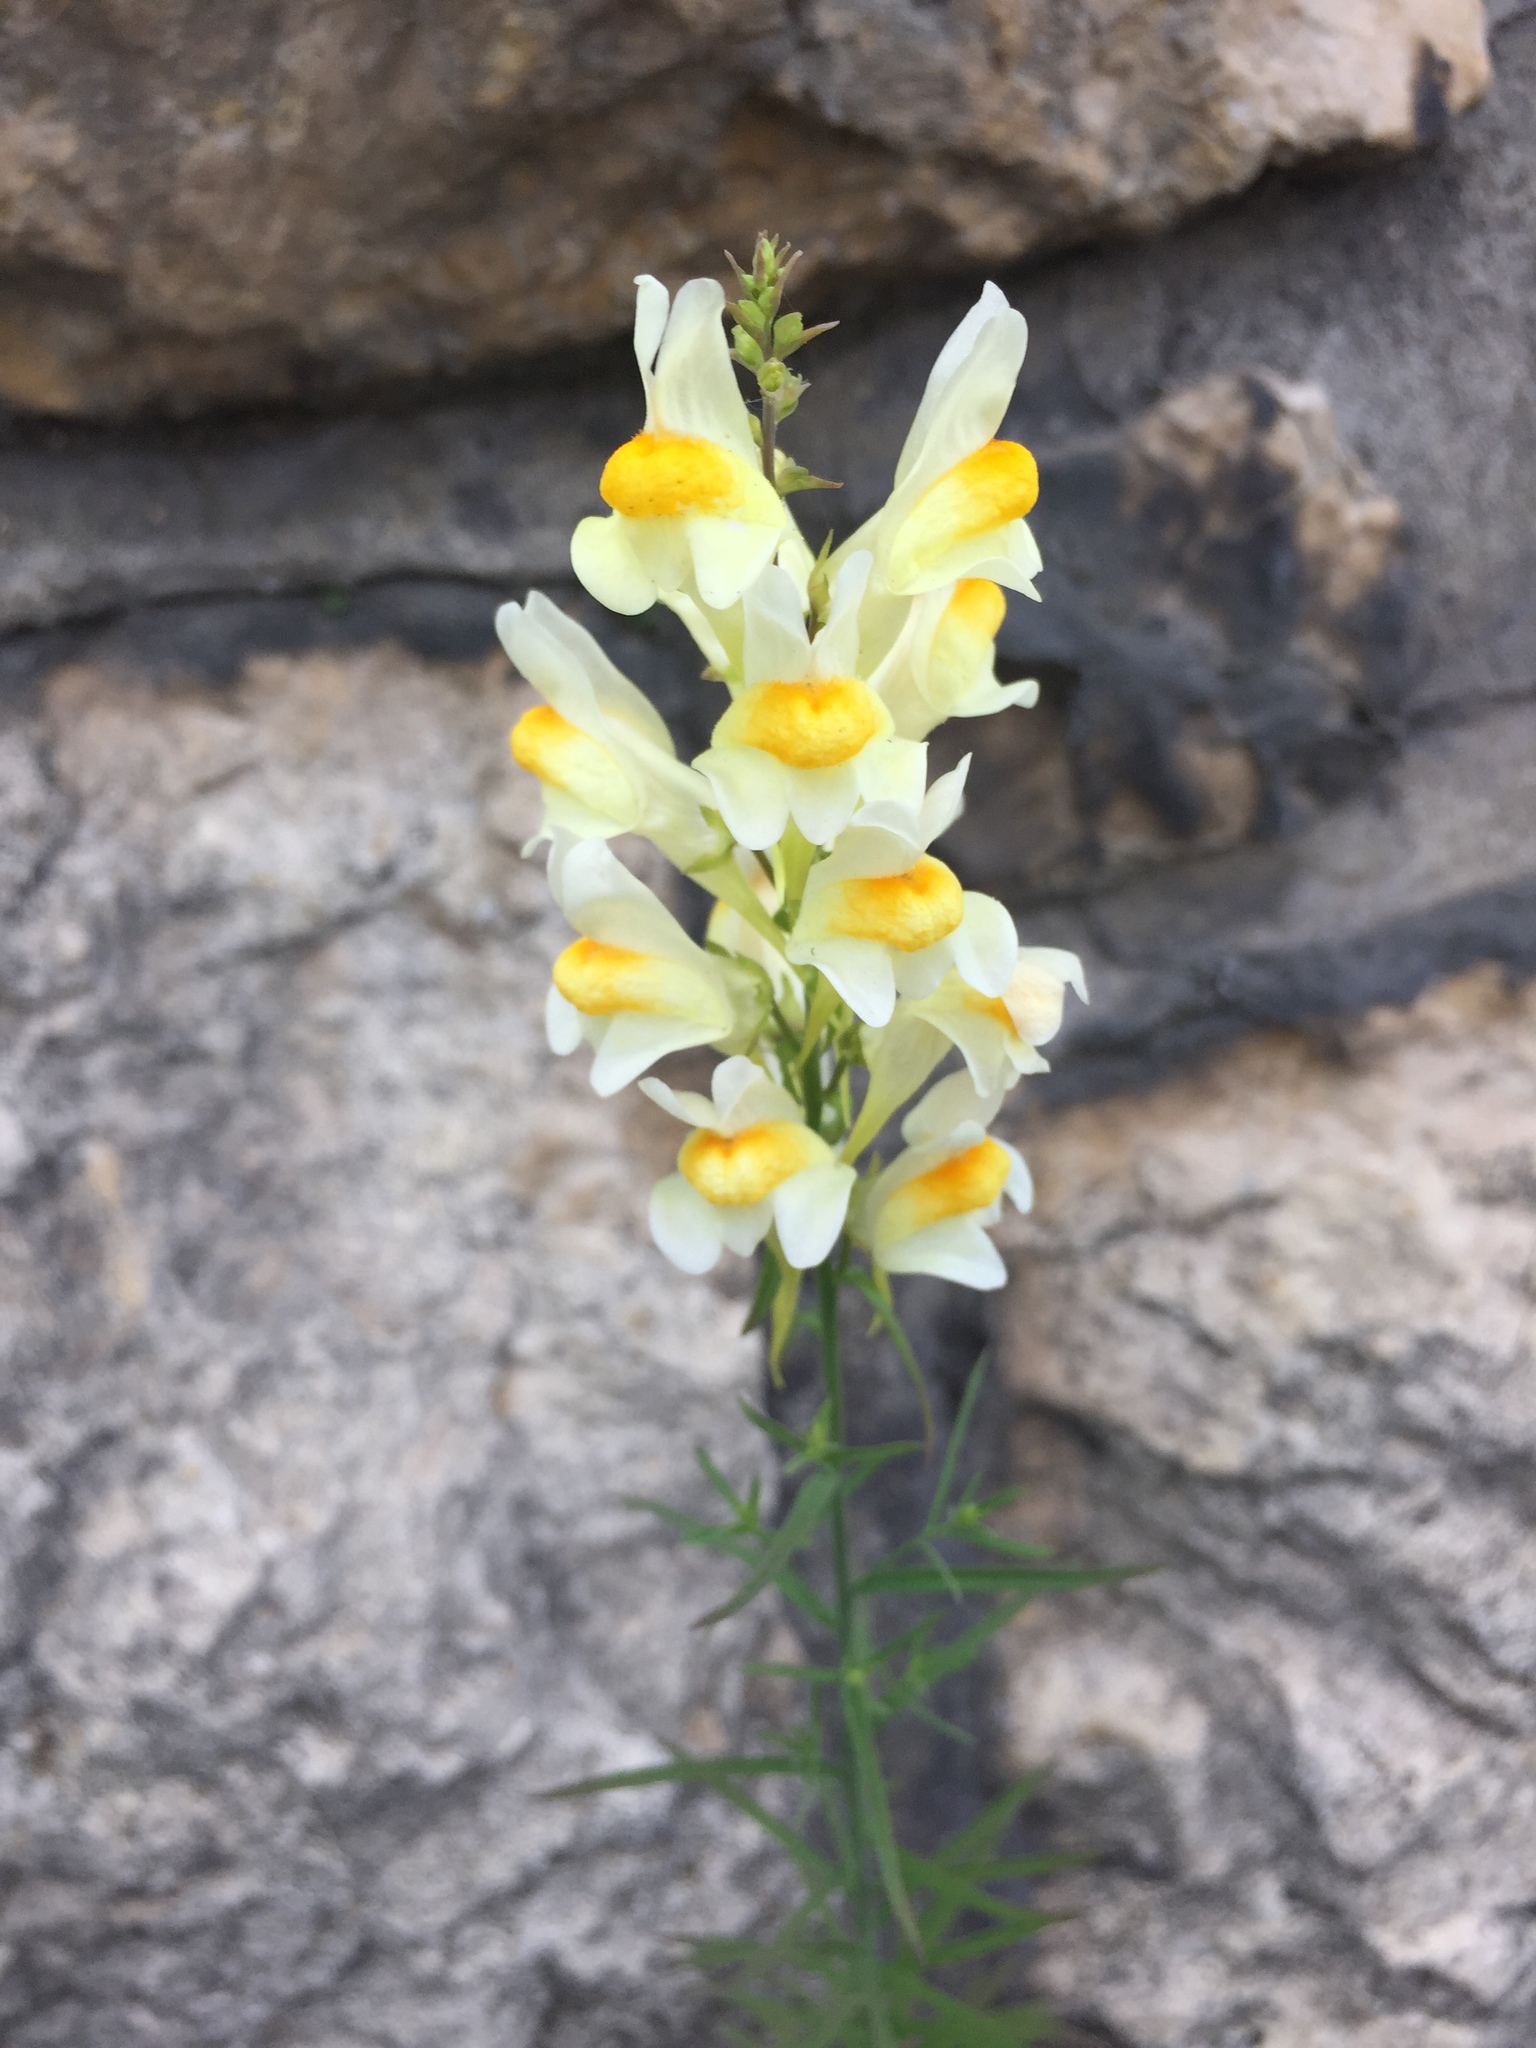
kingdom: Plantae
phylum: Tracheophyta
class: Magnoliopsida
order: Lamiales
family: Plantaginaceae
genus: Linaria
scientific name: Linaria vulgaris
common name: Butter and eggs
